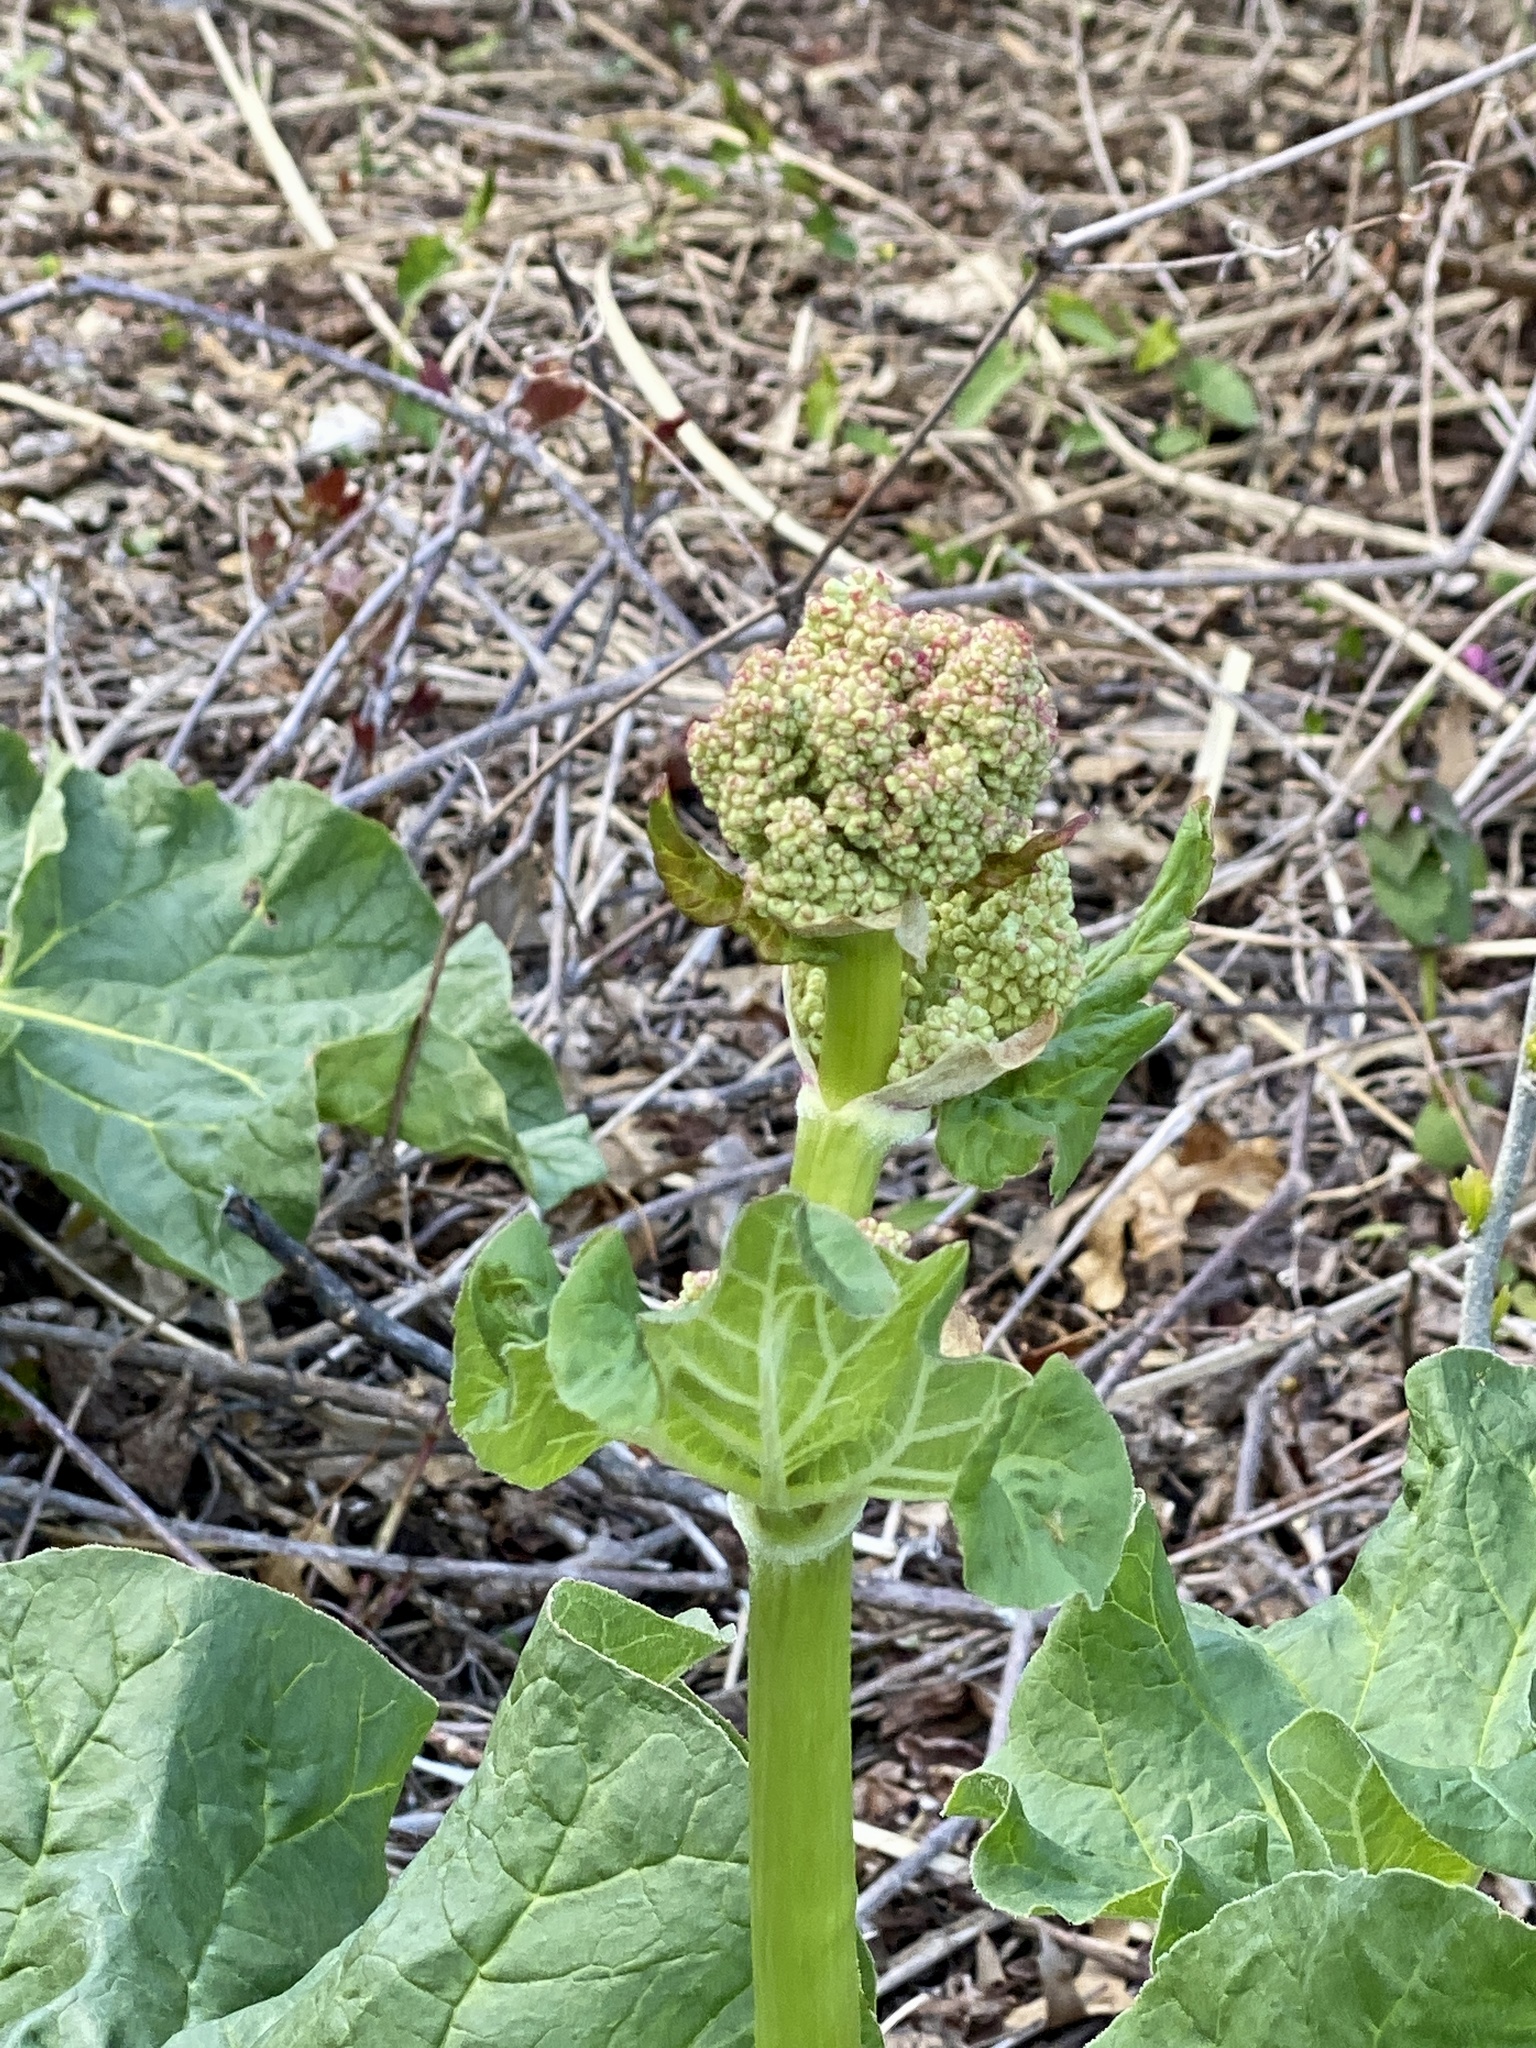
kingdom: Plantae
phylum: Tracheophyta
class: Magnoliopsida
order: Caryophyllales
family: Polygonaceae
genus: Rheum
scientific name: Rheum rhabarbarum
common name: Garden rhubarb
